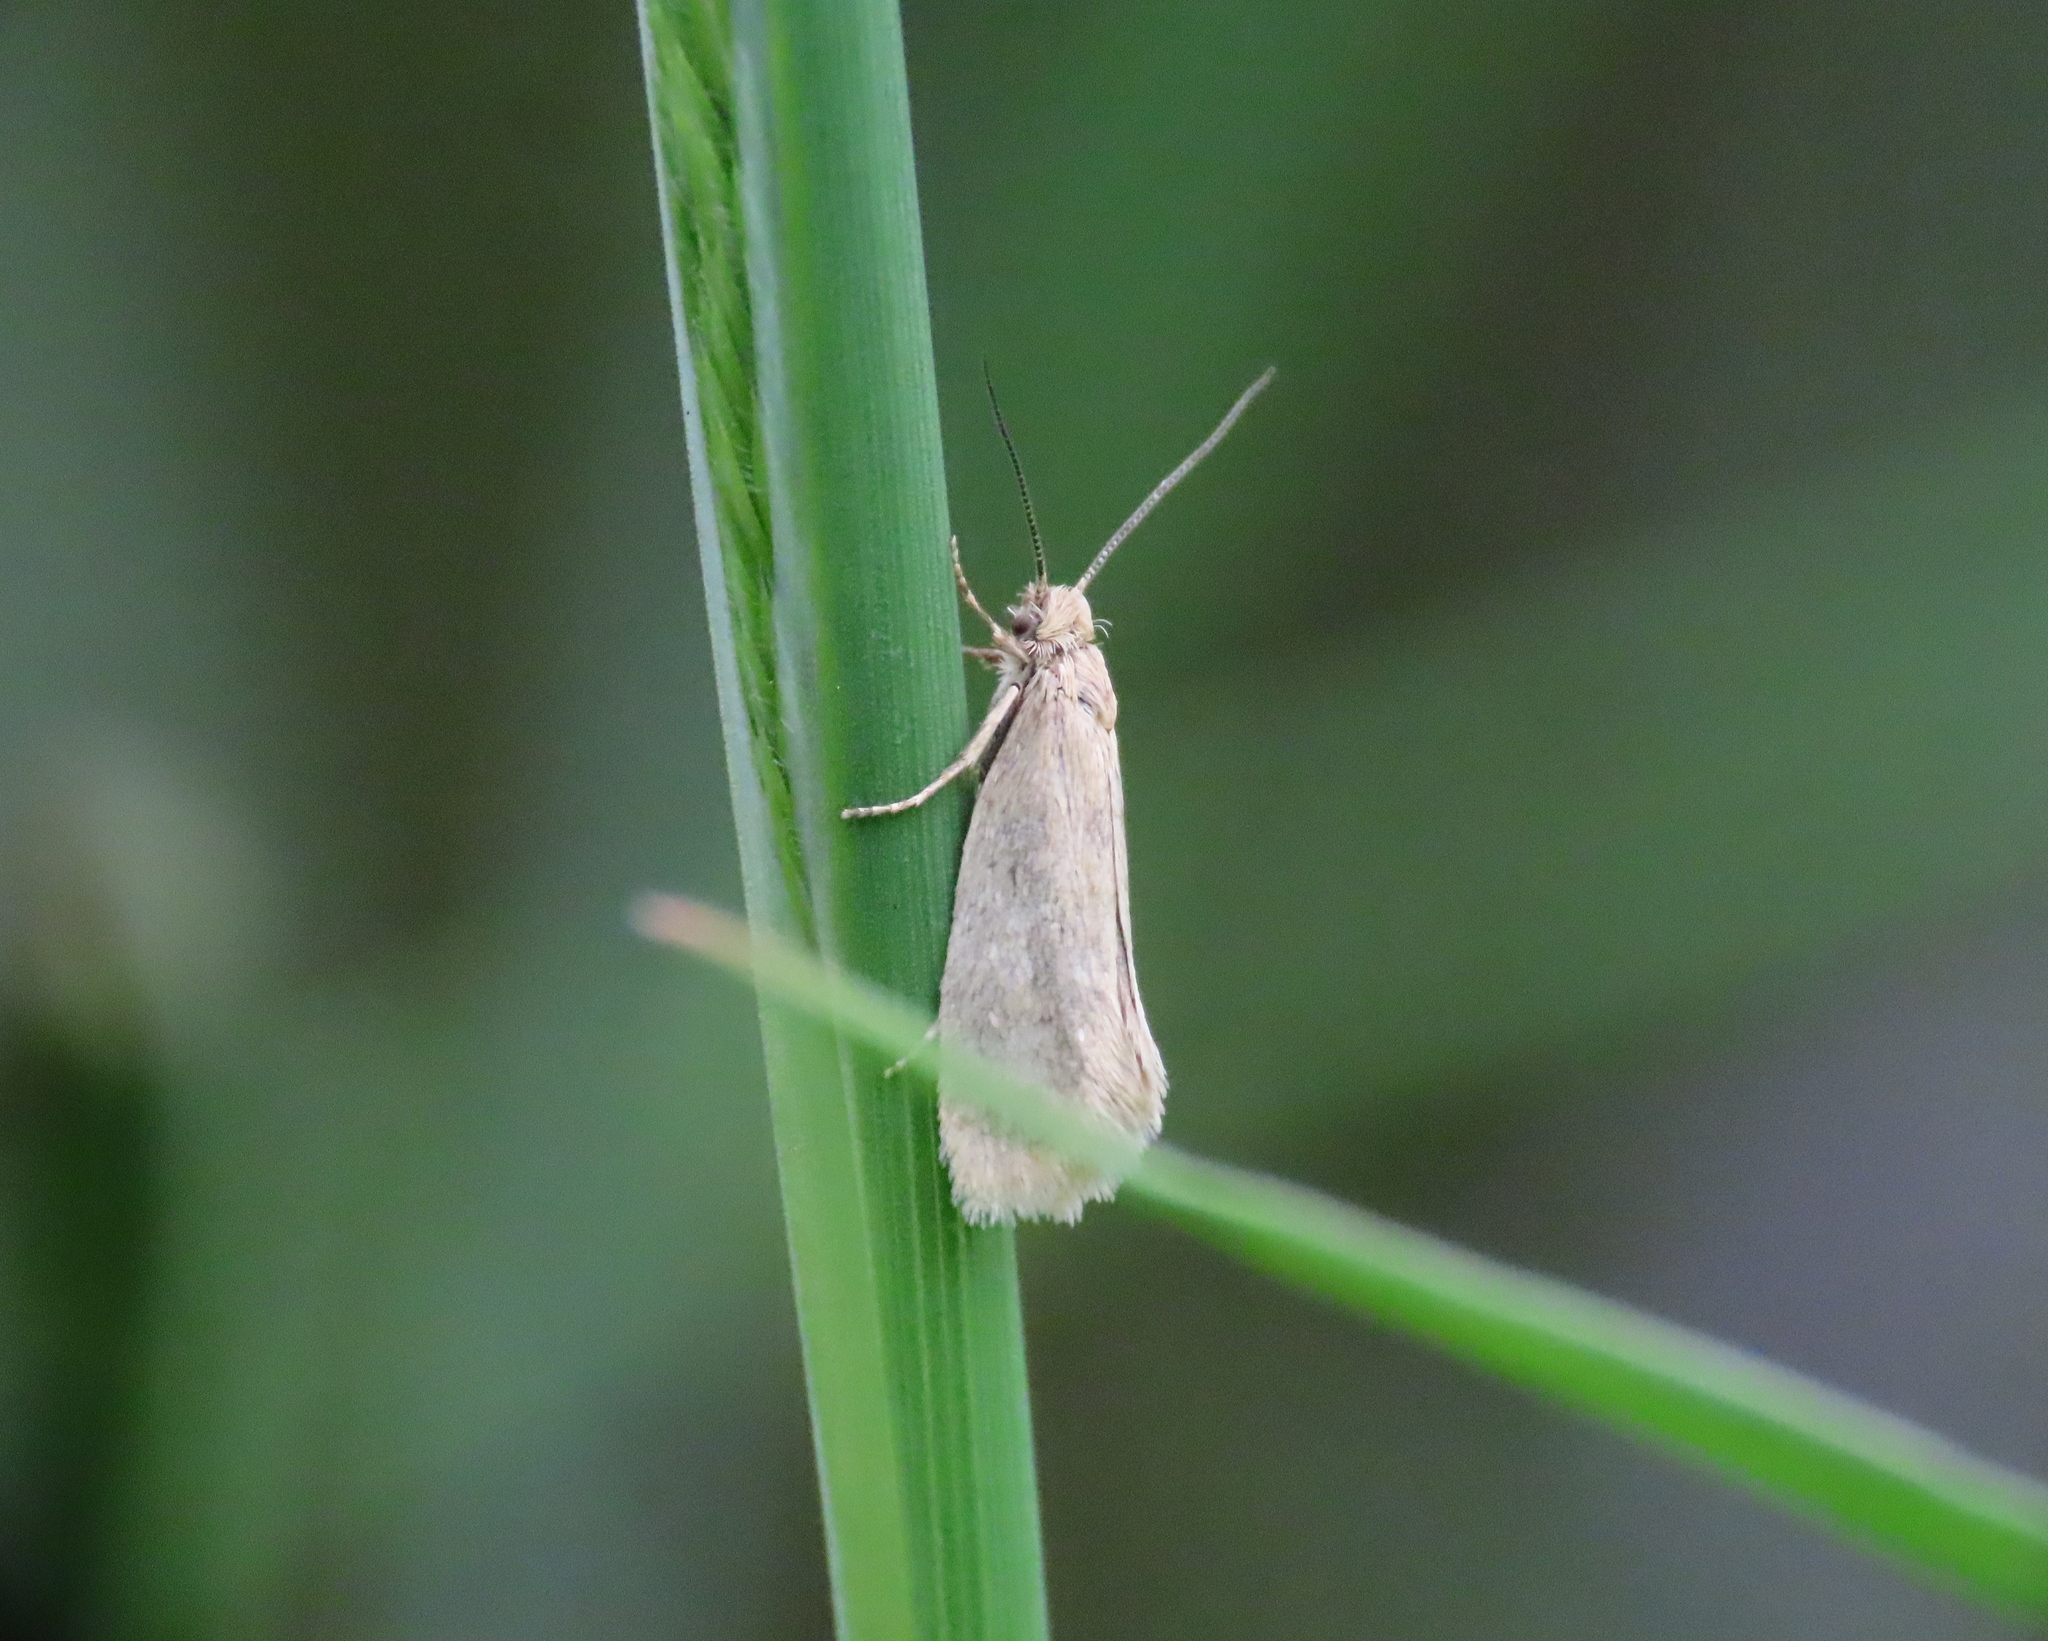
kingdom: Animalia
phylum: Arthropoda
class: Insecta
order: Lepidoptera
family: Eriocottidae
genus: Eriocottis
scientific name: Eriocottis fuscanella
